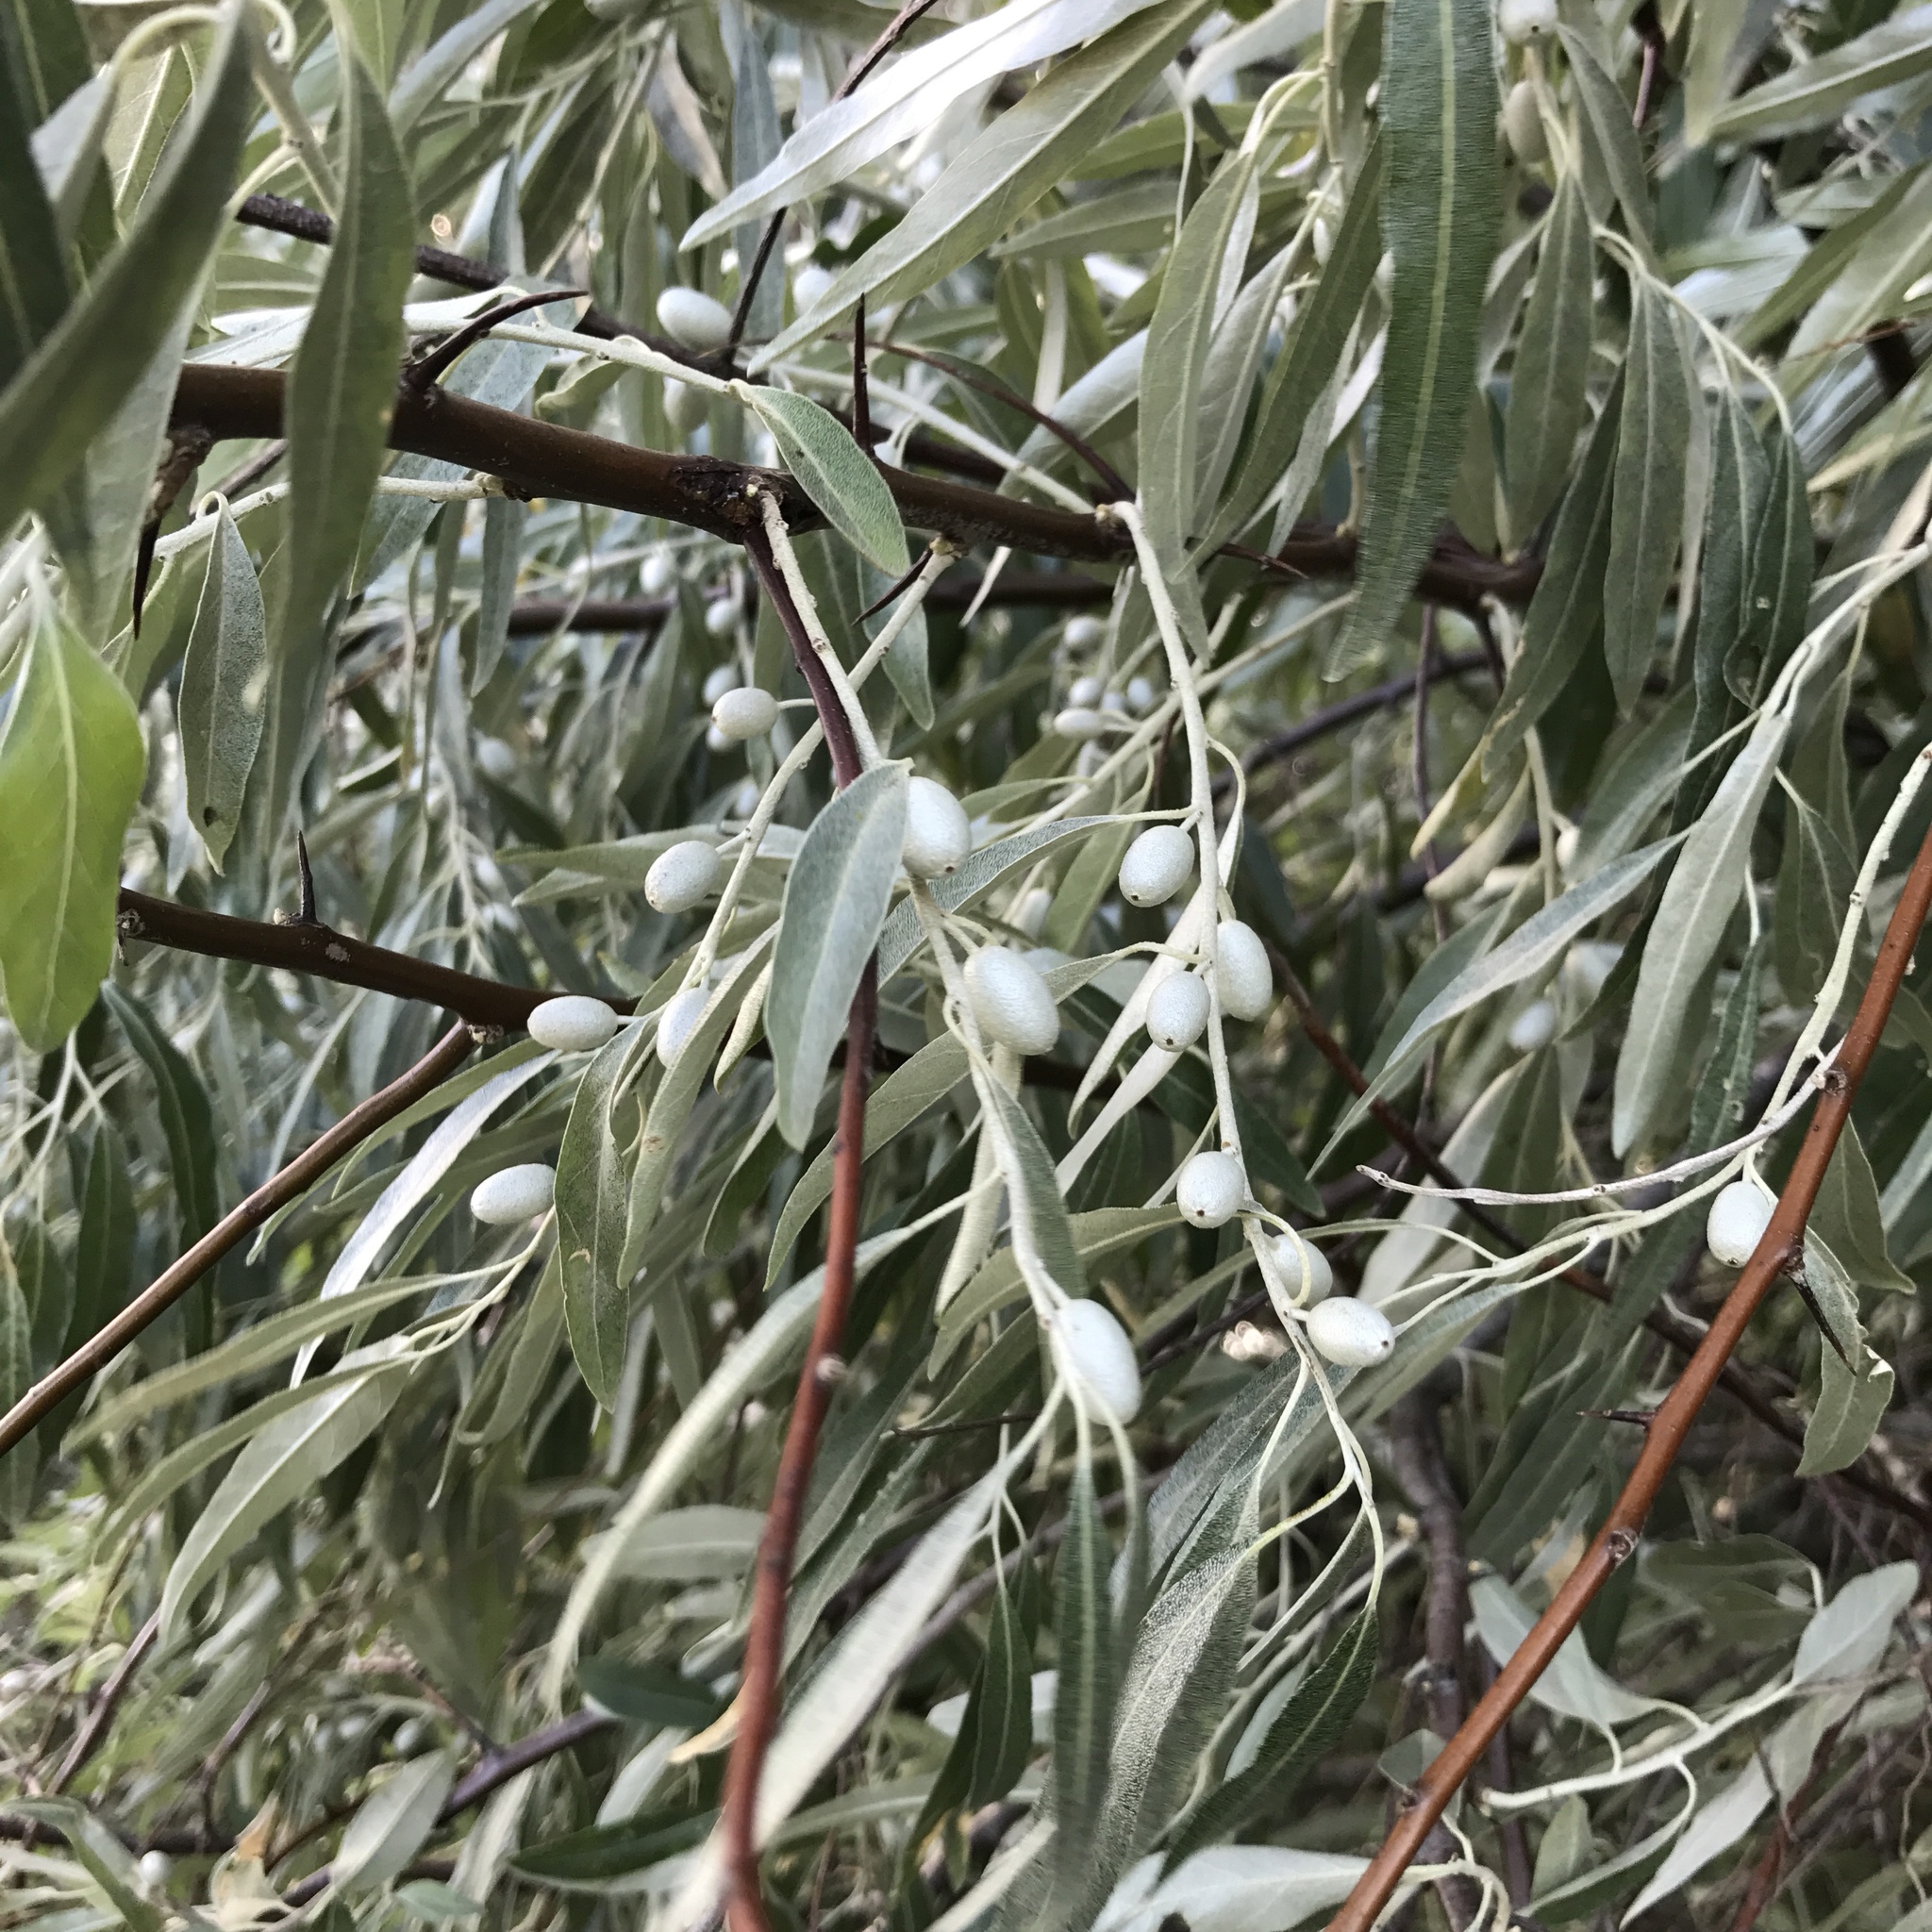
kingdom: Plantae
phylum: Tracheophyta
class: Magnoliopsida
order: Rosales
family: Elaeagnaceae
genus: Elaeagnus
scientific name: Elaeagnus angustifolia
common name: Russian olive
